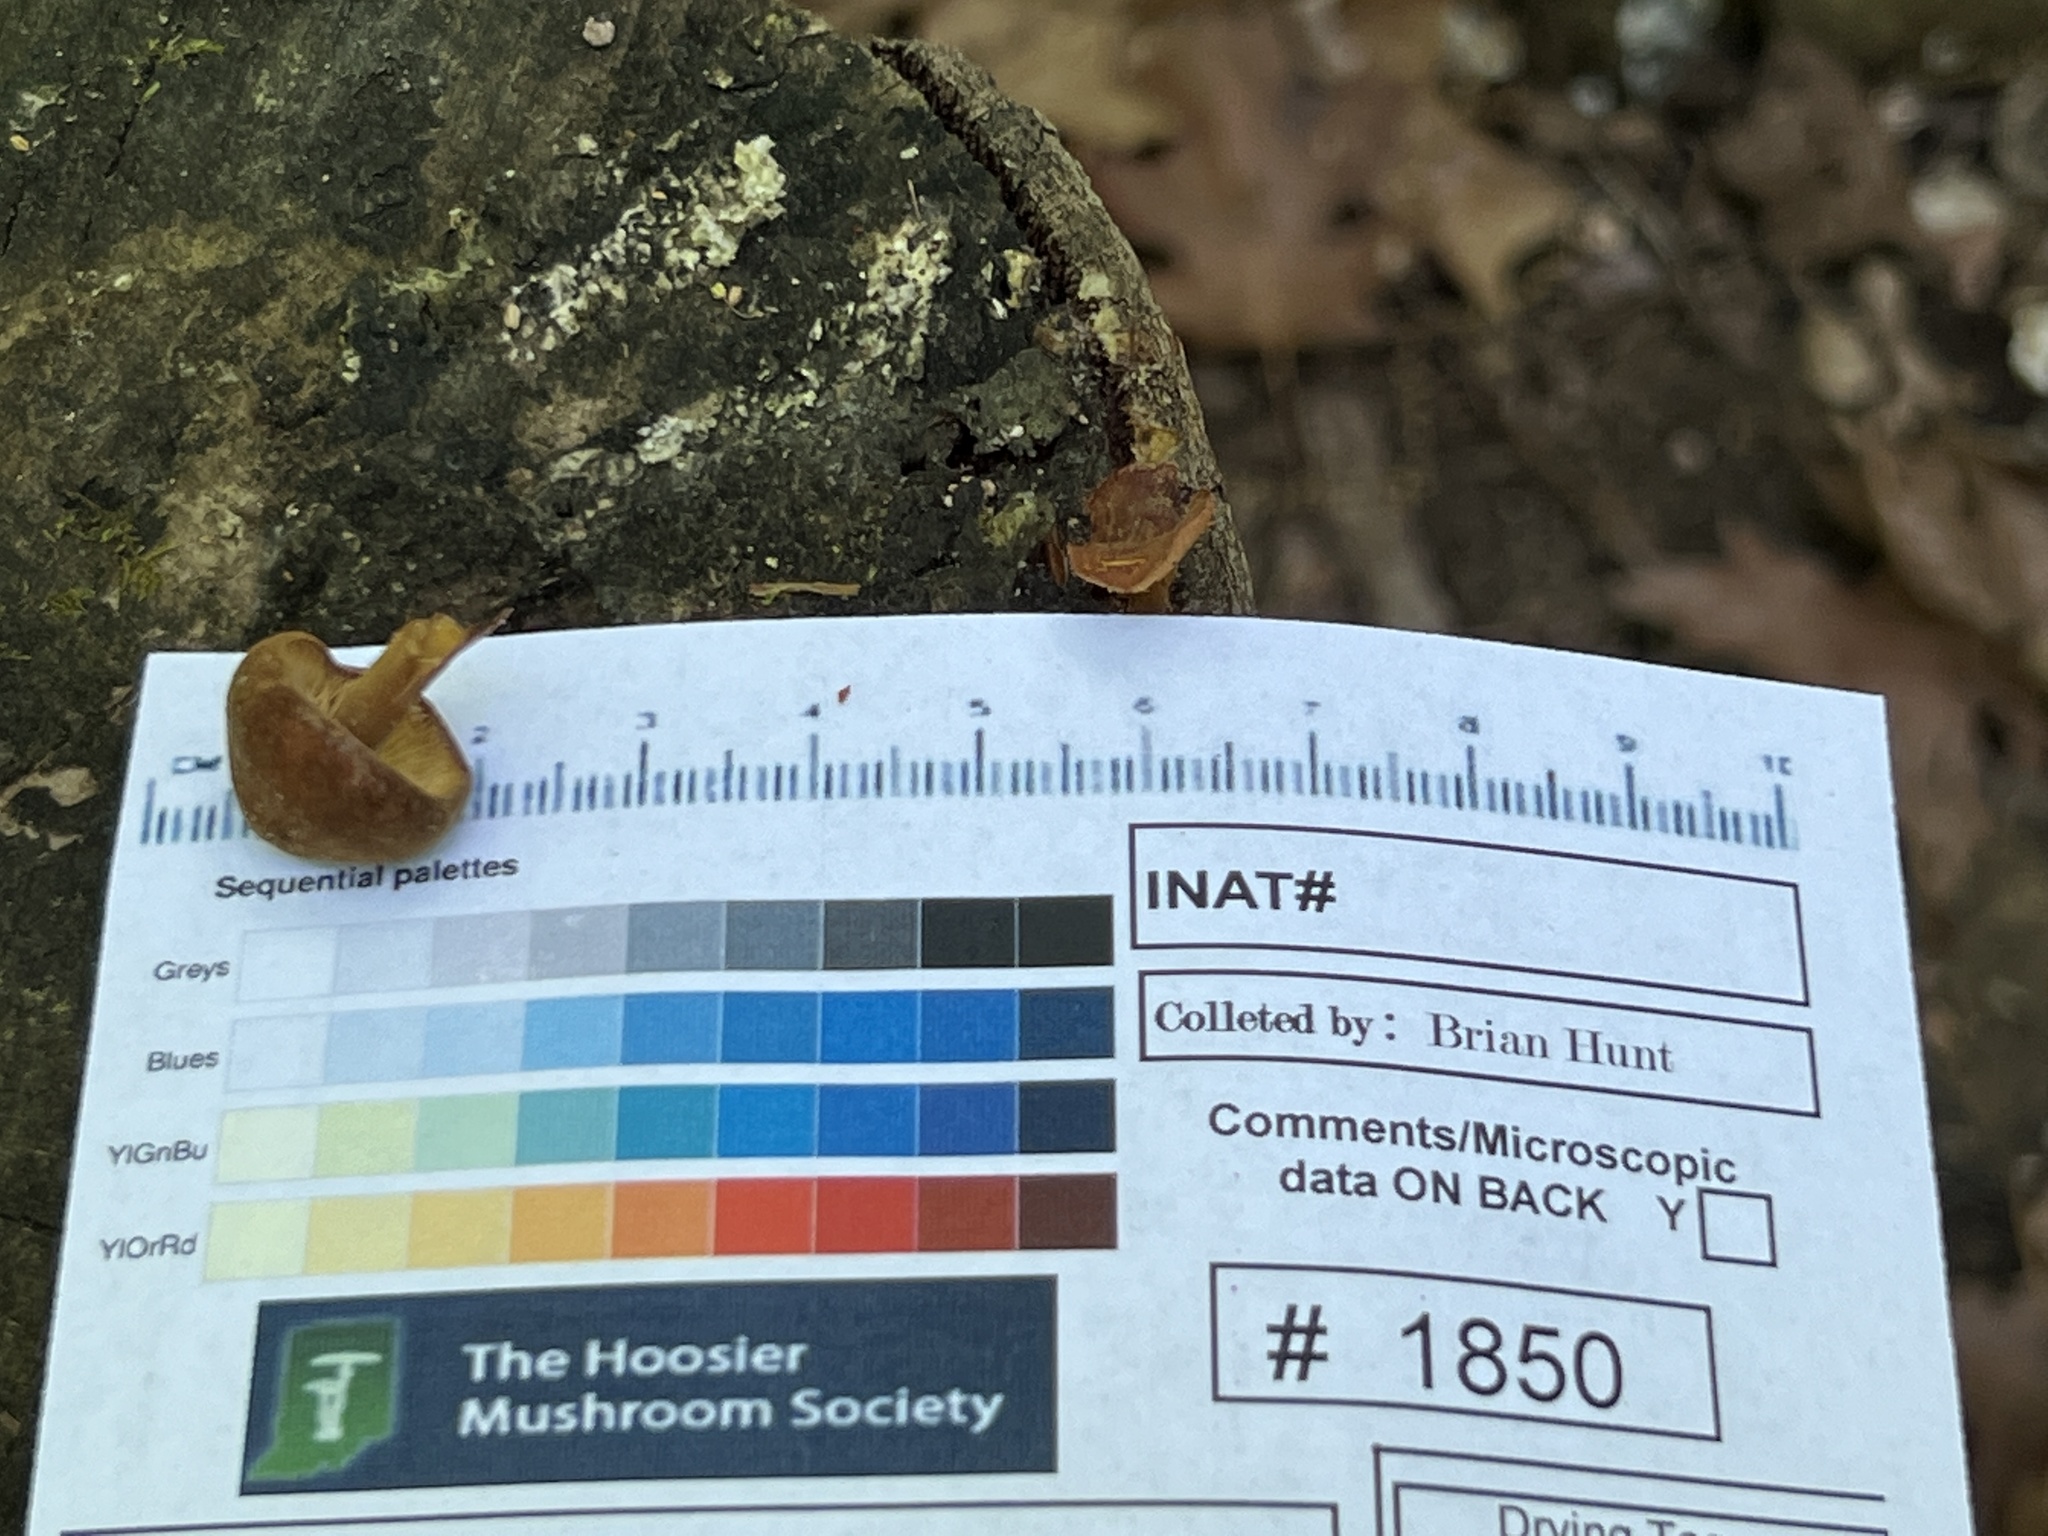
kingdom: Fungi
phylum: Basidiomycota
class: Agaricomycetes
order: Agaricales
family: Mycenaceae
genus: Xeromphalina
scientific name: Xeromphalina tenuipes
